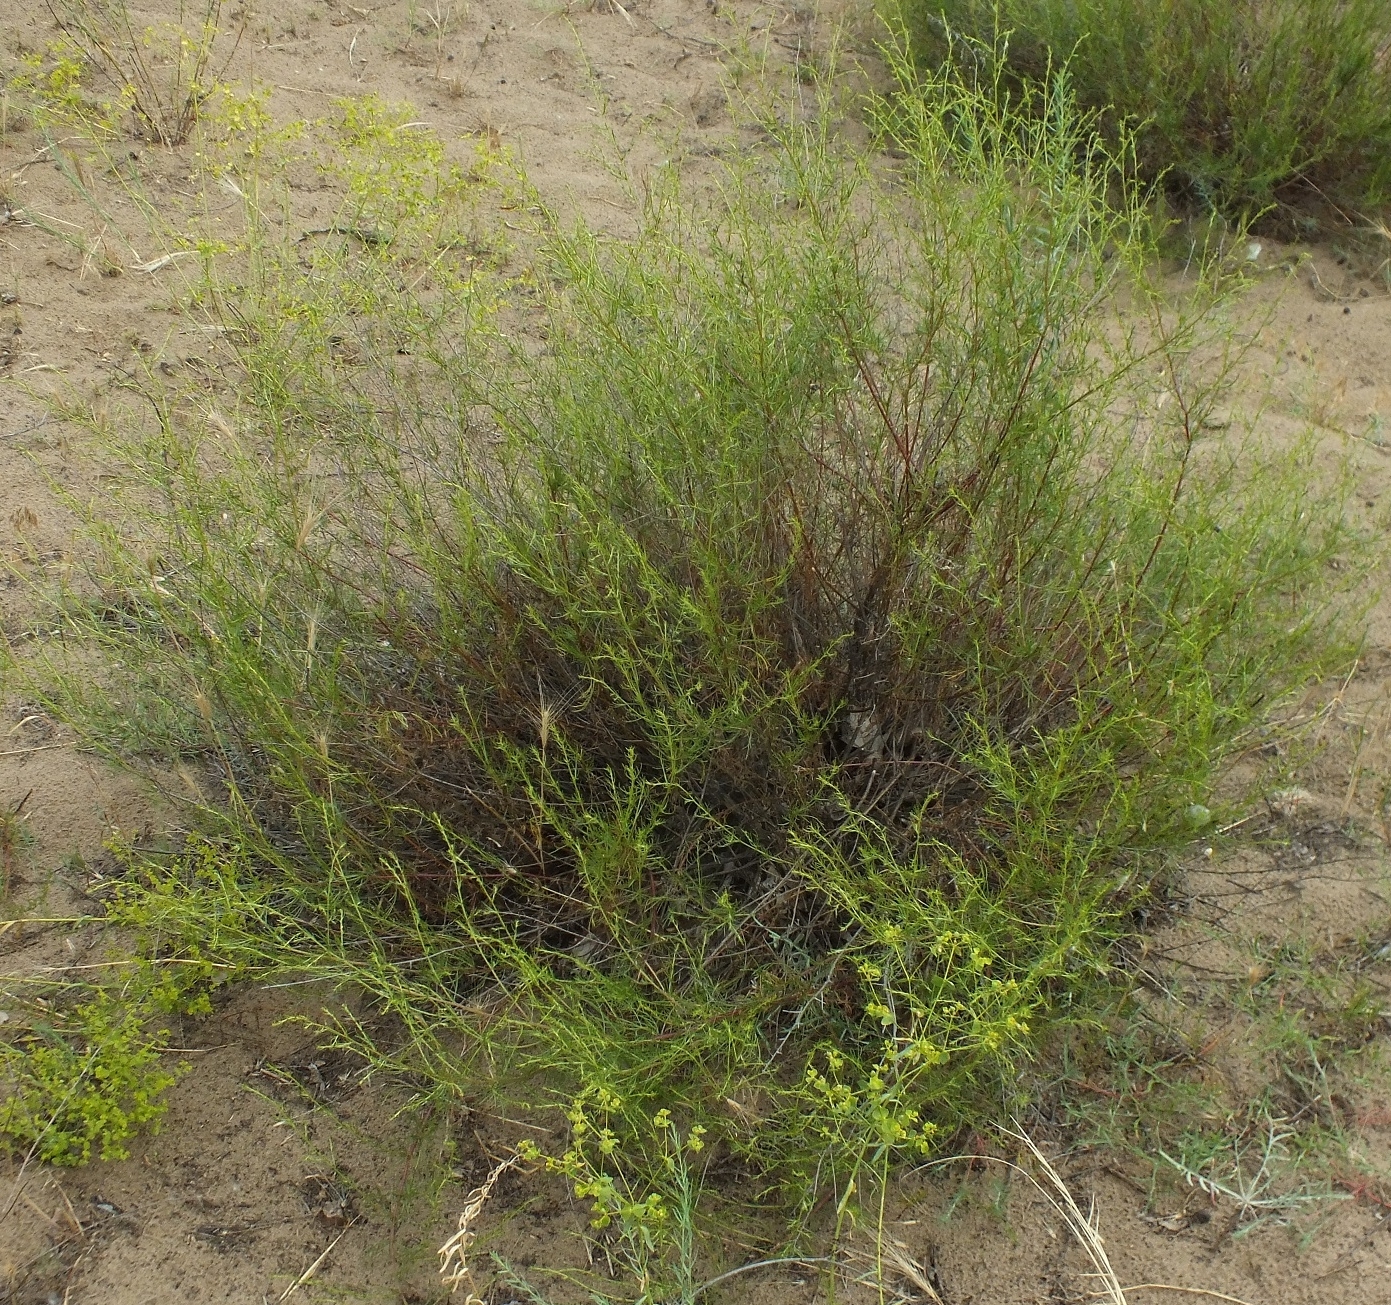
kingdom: Plantae
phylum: Tracheophyta
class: Magnoliopsida
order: Asterales
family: Asteraceae
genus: Artemisia
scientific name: Artemisia salsoloides
